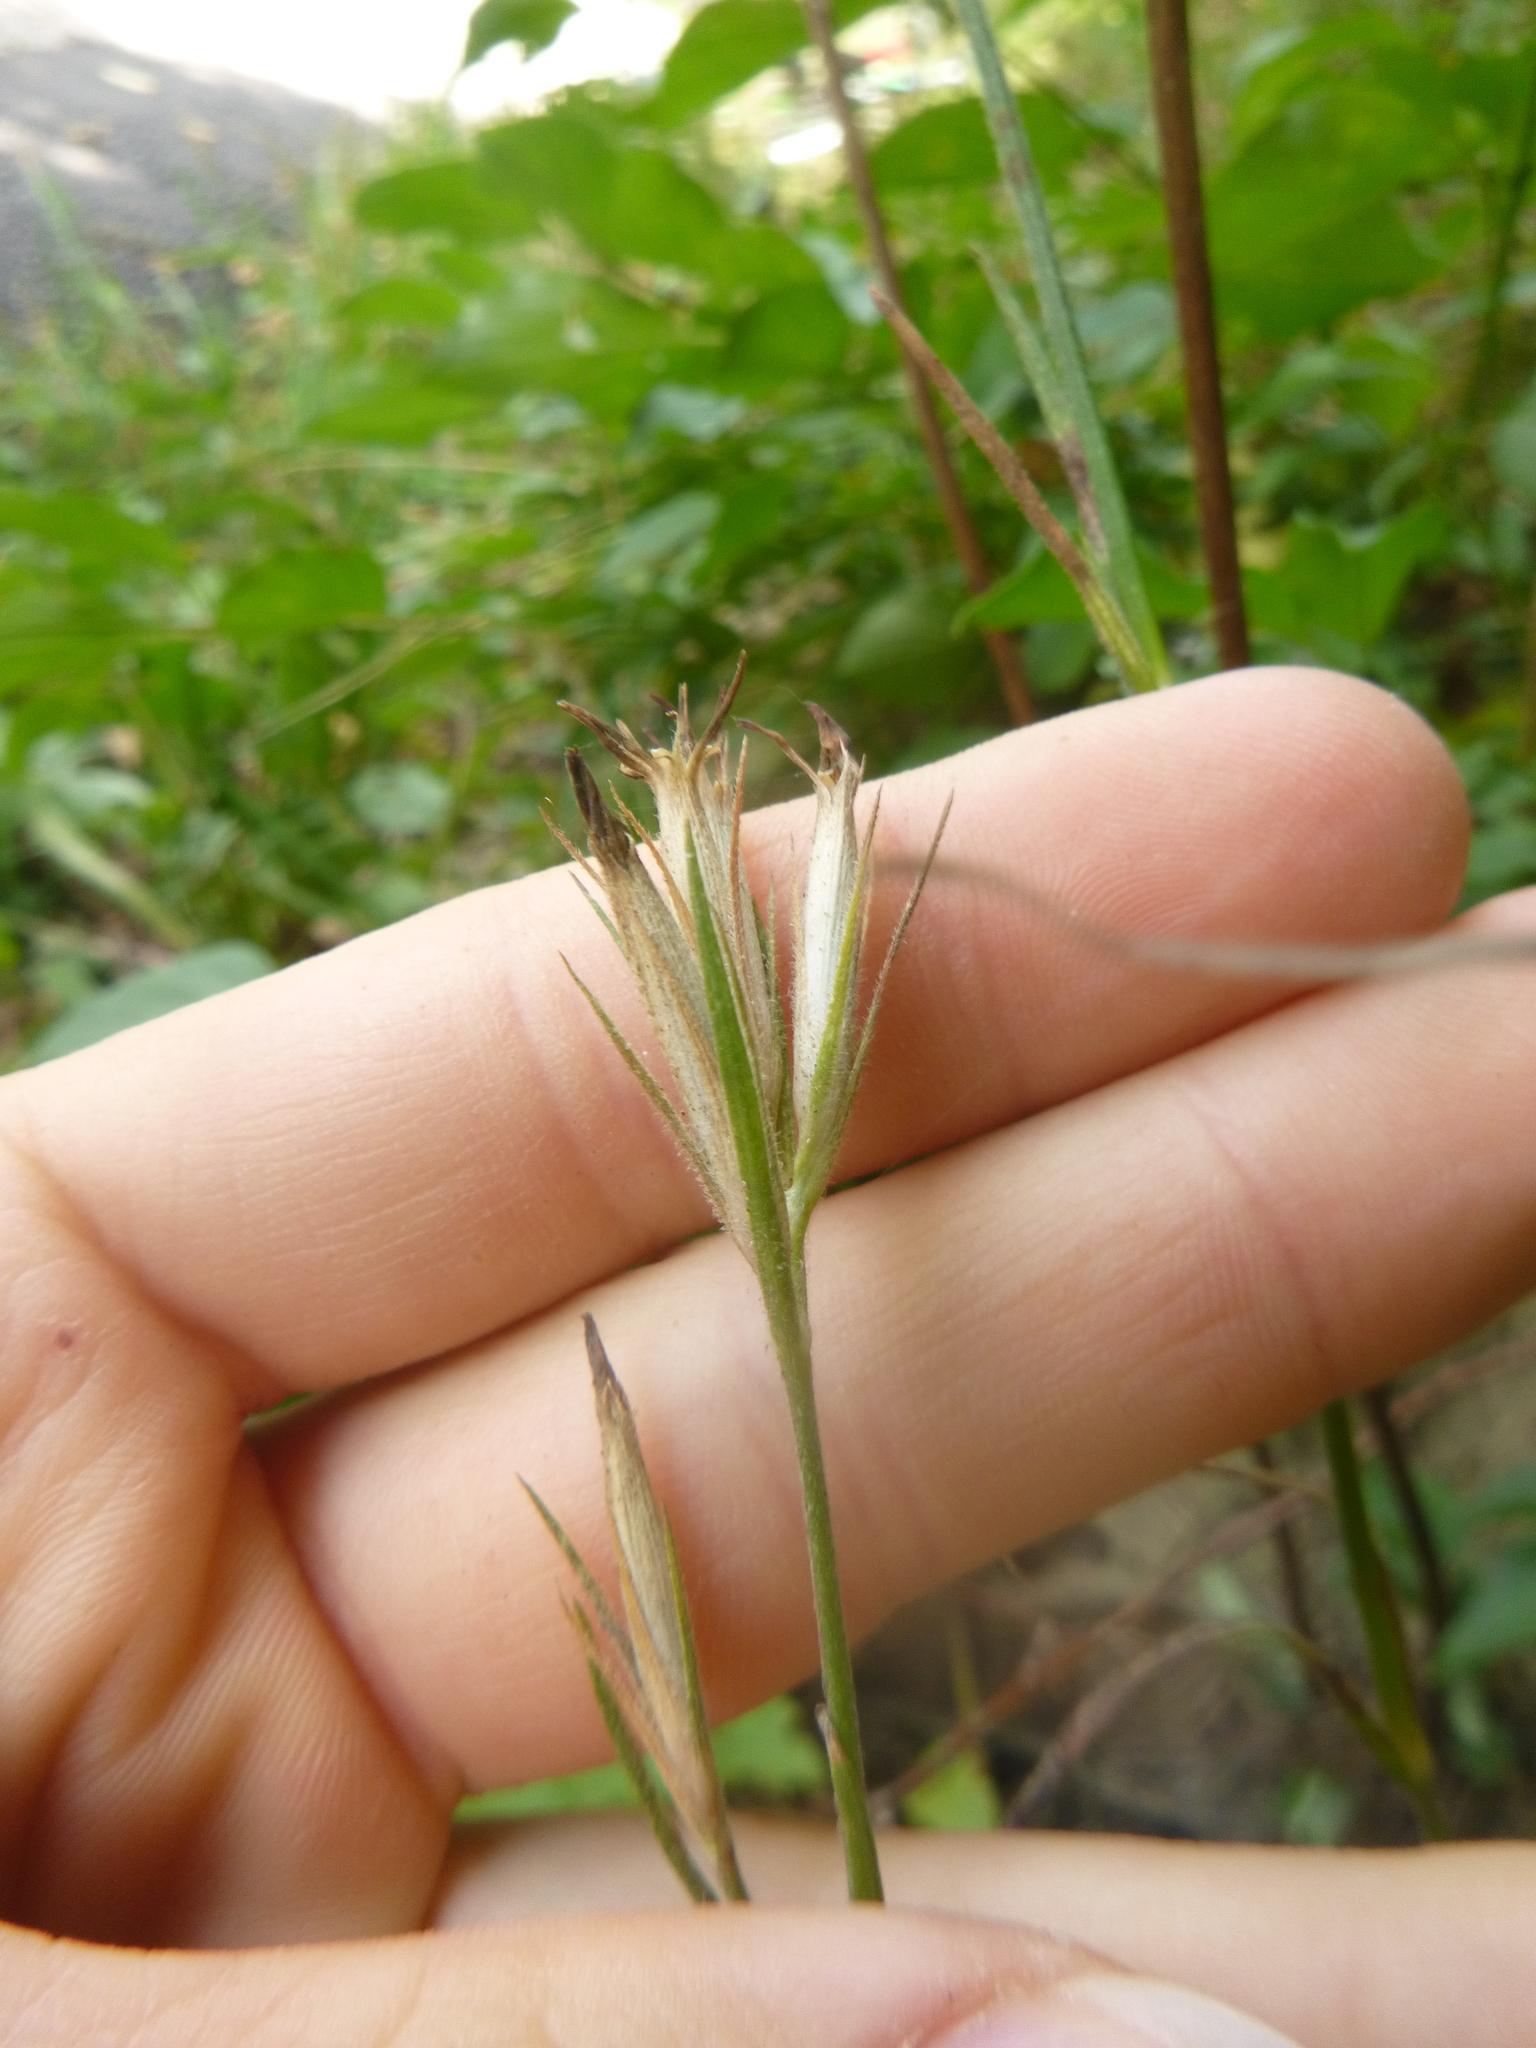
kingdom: Plantae
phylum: Tracheophyta
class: Magnoliopsida
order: Caryophyllales
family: Caryophyllaceae
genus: Dianthus
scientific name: Dianthus armeria
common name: Deptford pink
